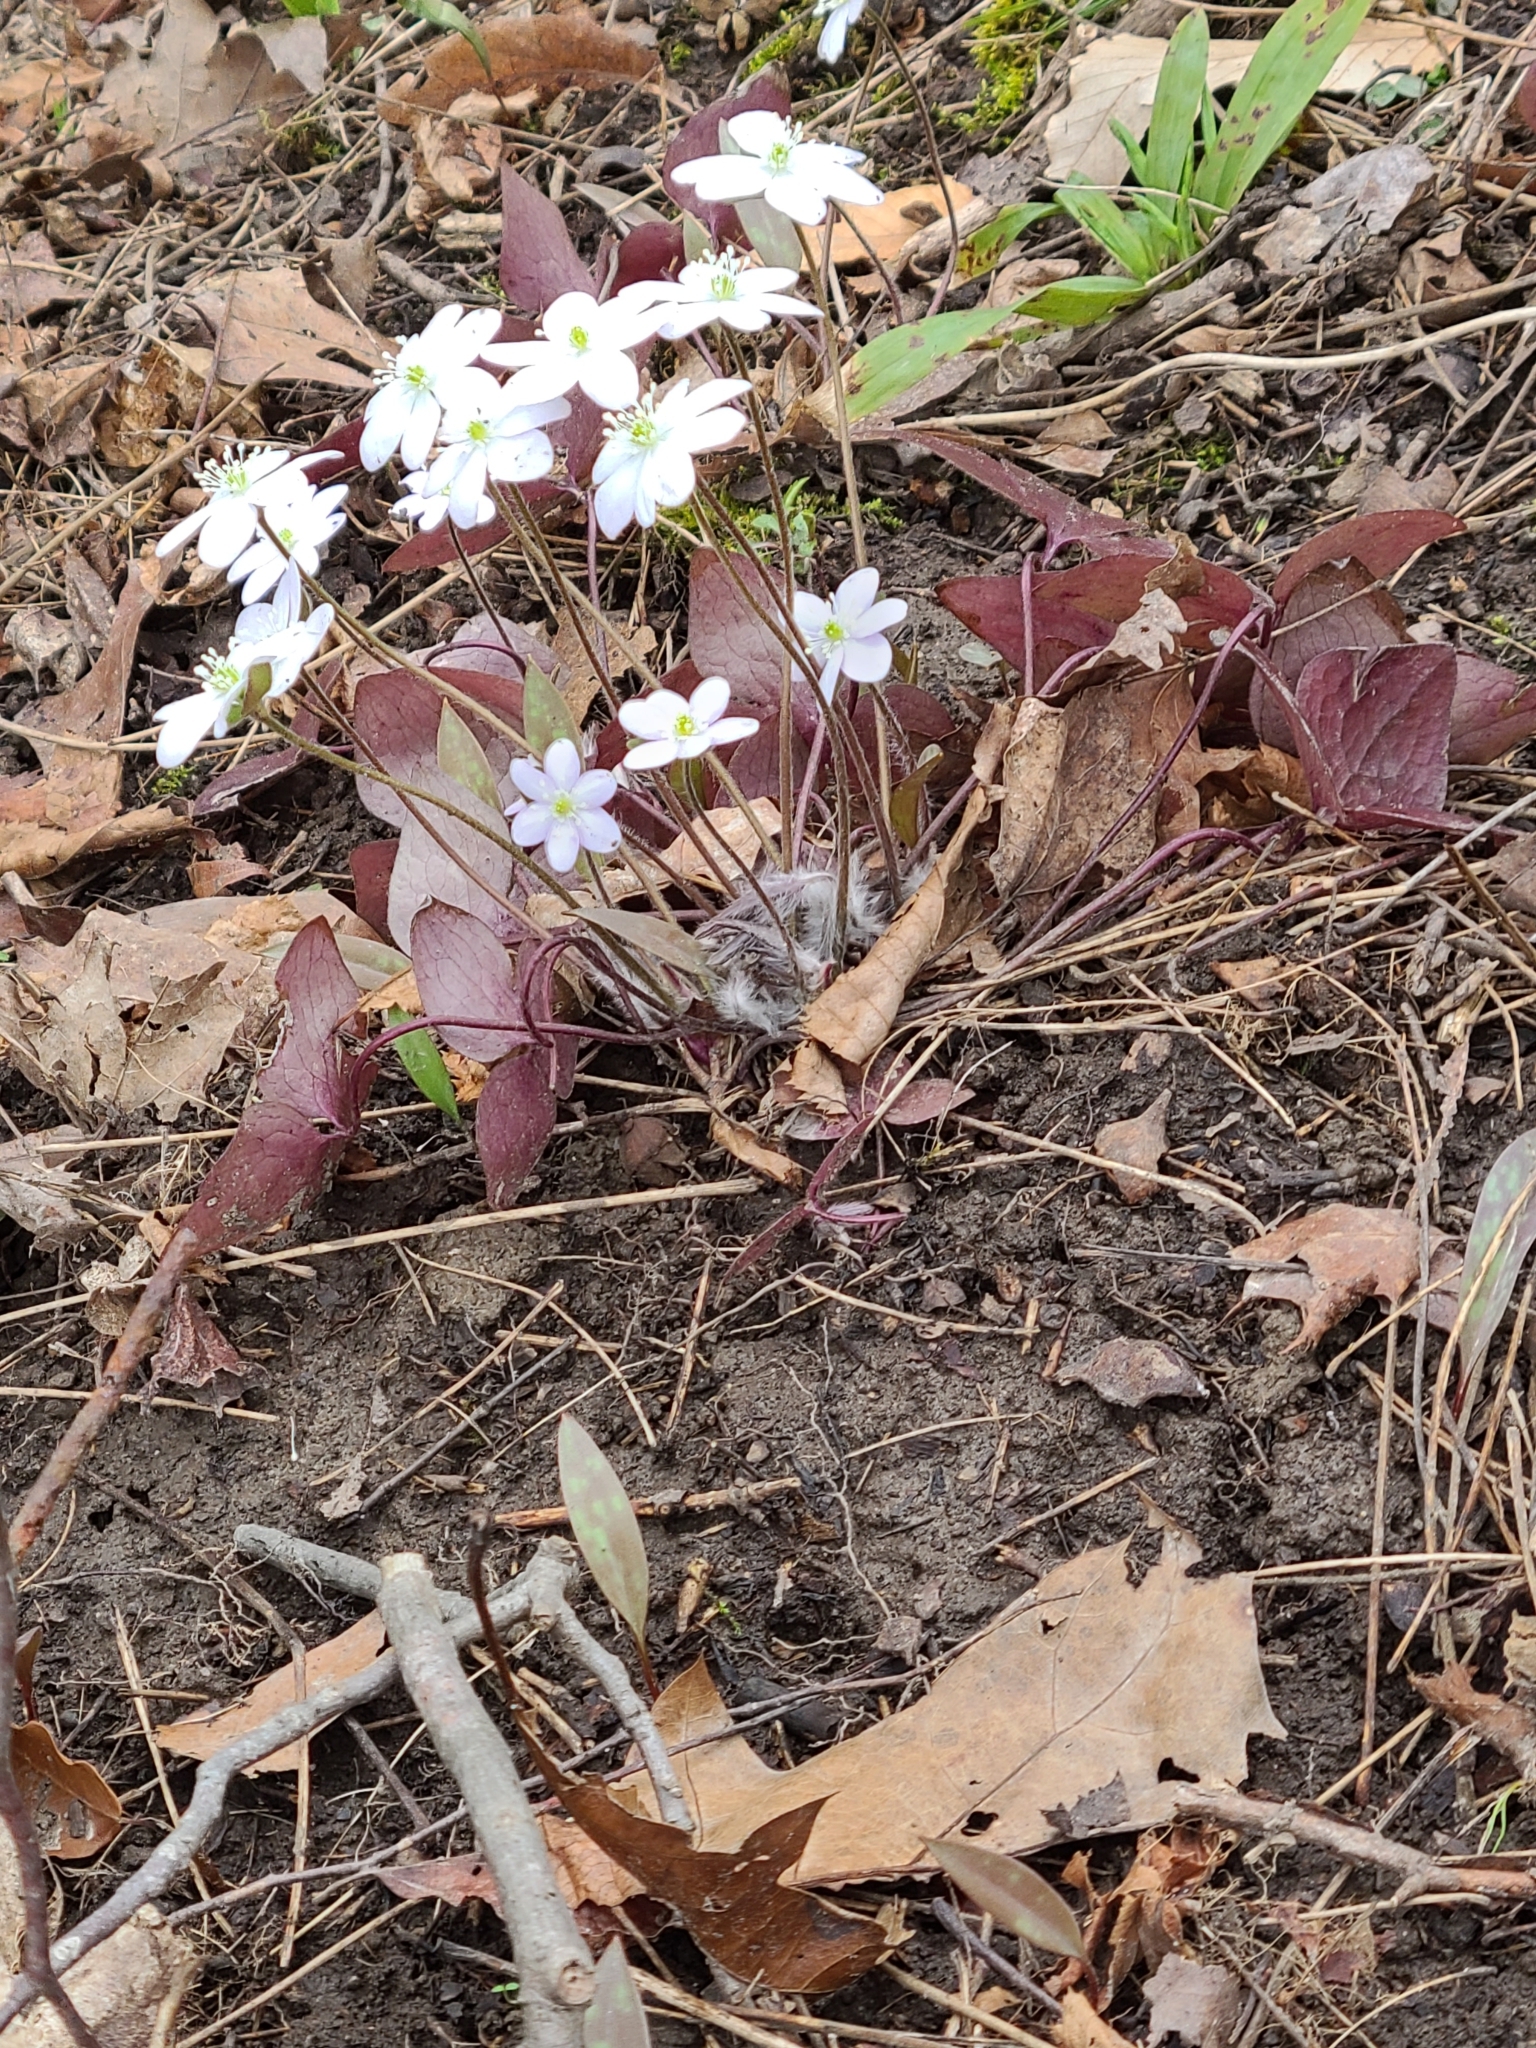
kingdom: Plantae
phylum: Tracheophyta
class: Magnoliopsida
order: Ranunculales
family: Ranunculaceae
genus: Hepatica
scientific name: Hepatica acutiloba
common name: Sharp-lobed hepatica
